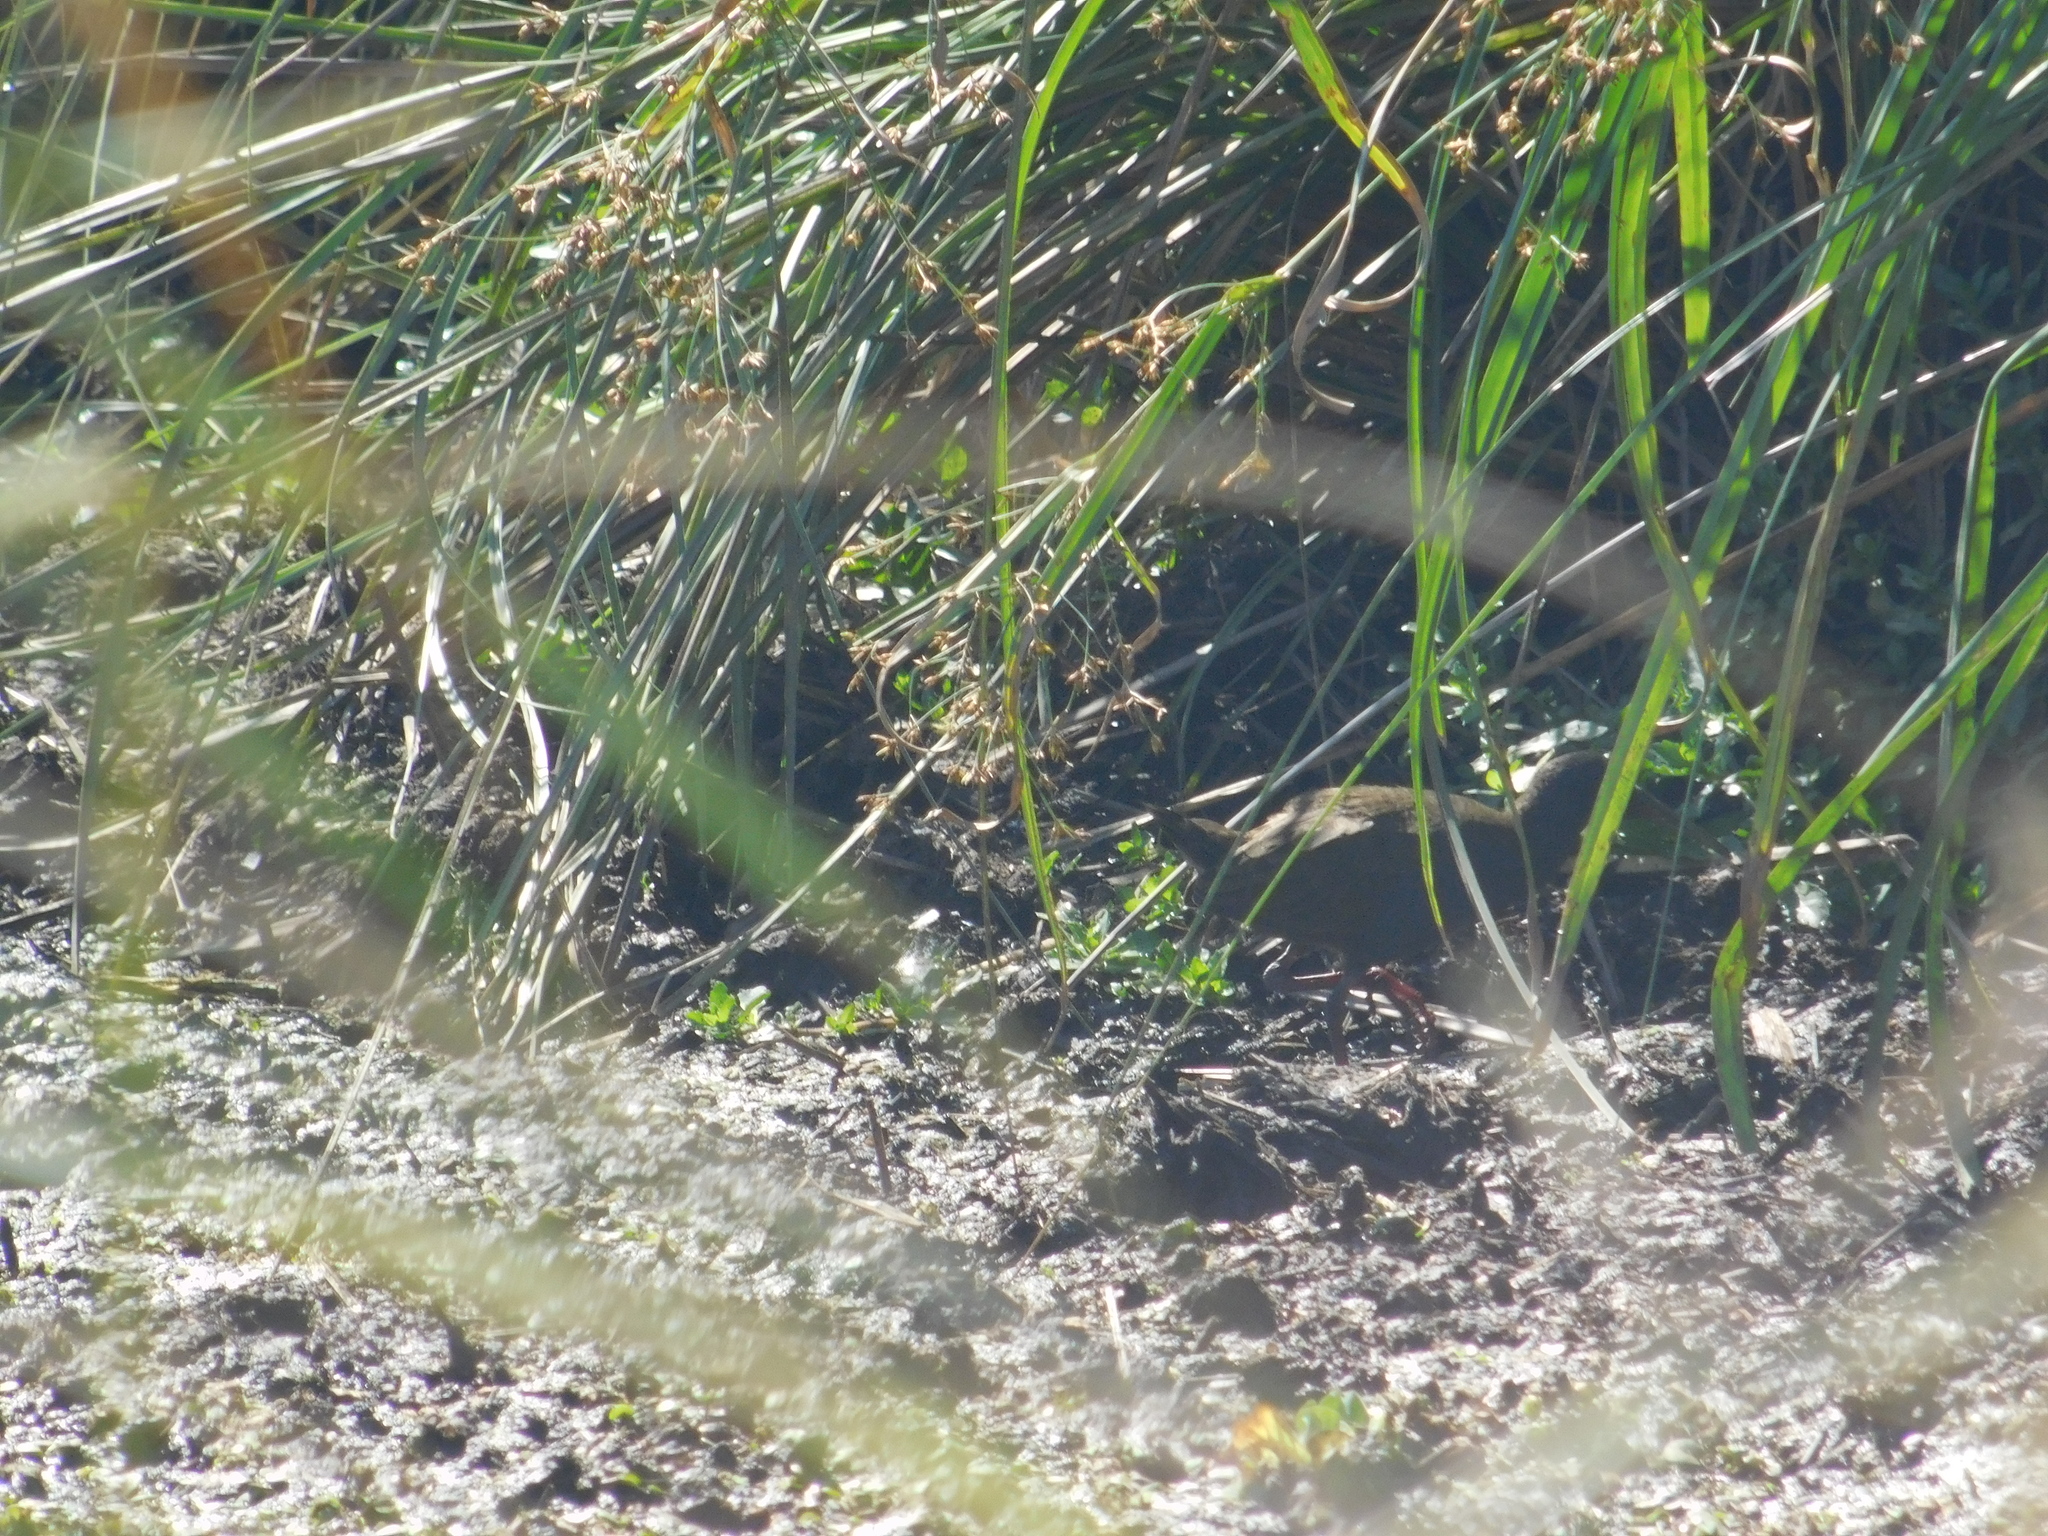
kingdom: Animalia
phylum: Chordata
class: Aves
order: Gruiformes
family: Rallidae
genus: Pardirallus
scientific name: Pardirallus sanguinolentus
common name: Plumbeous rail
